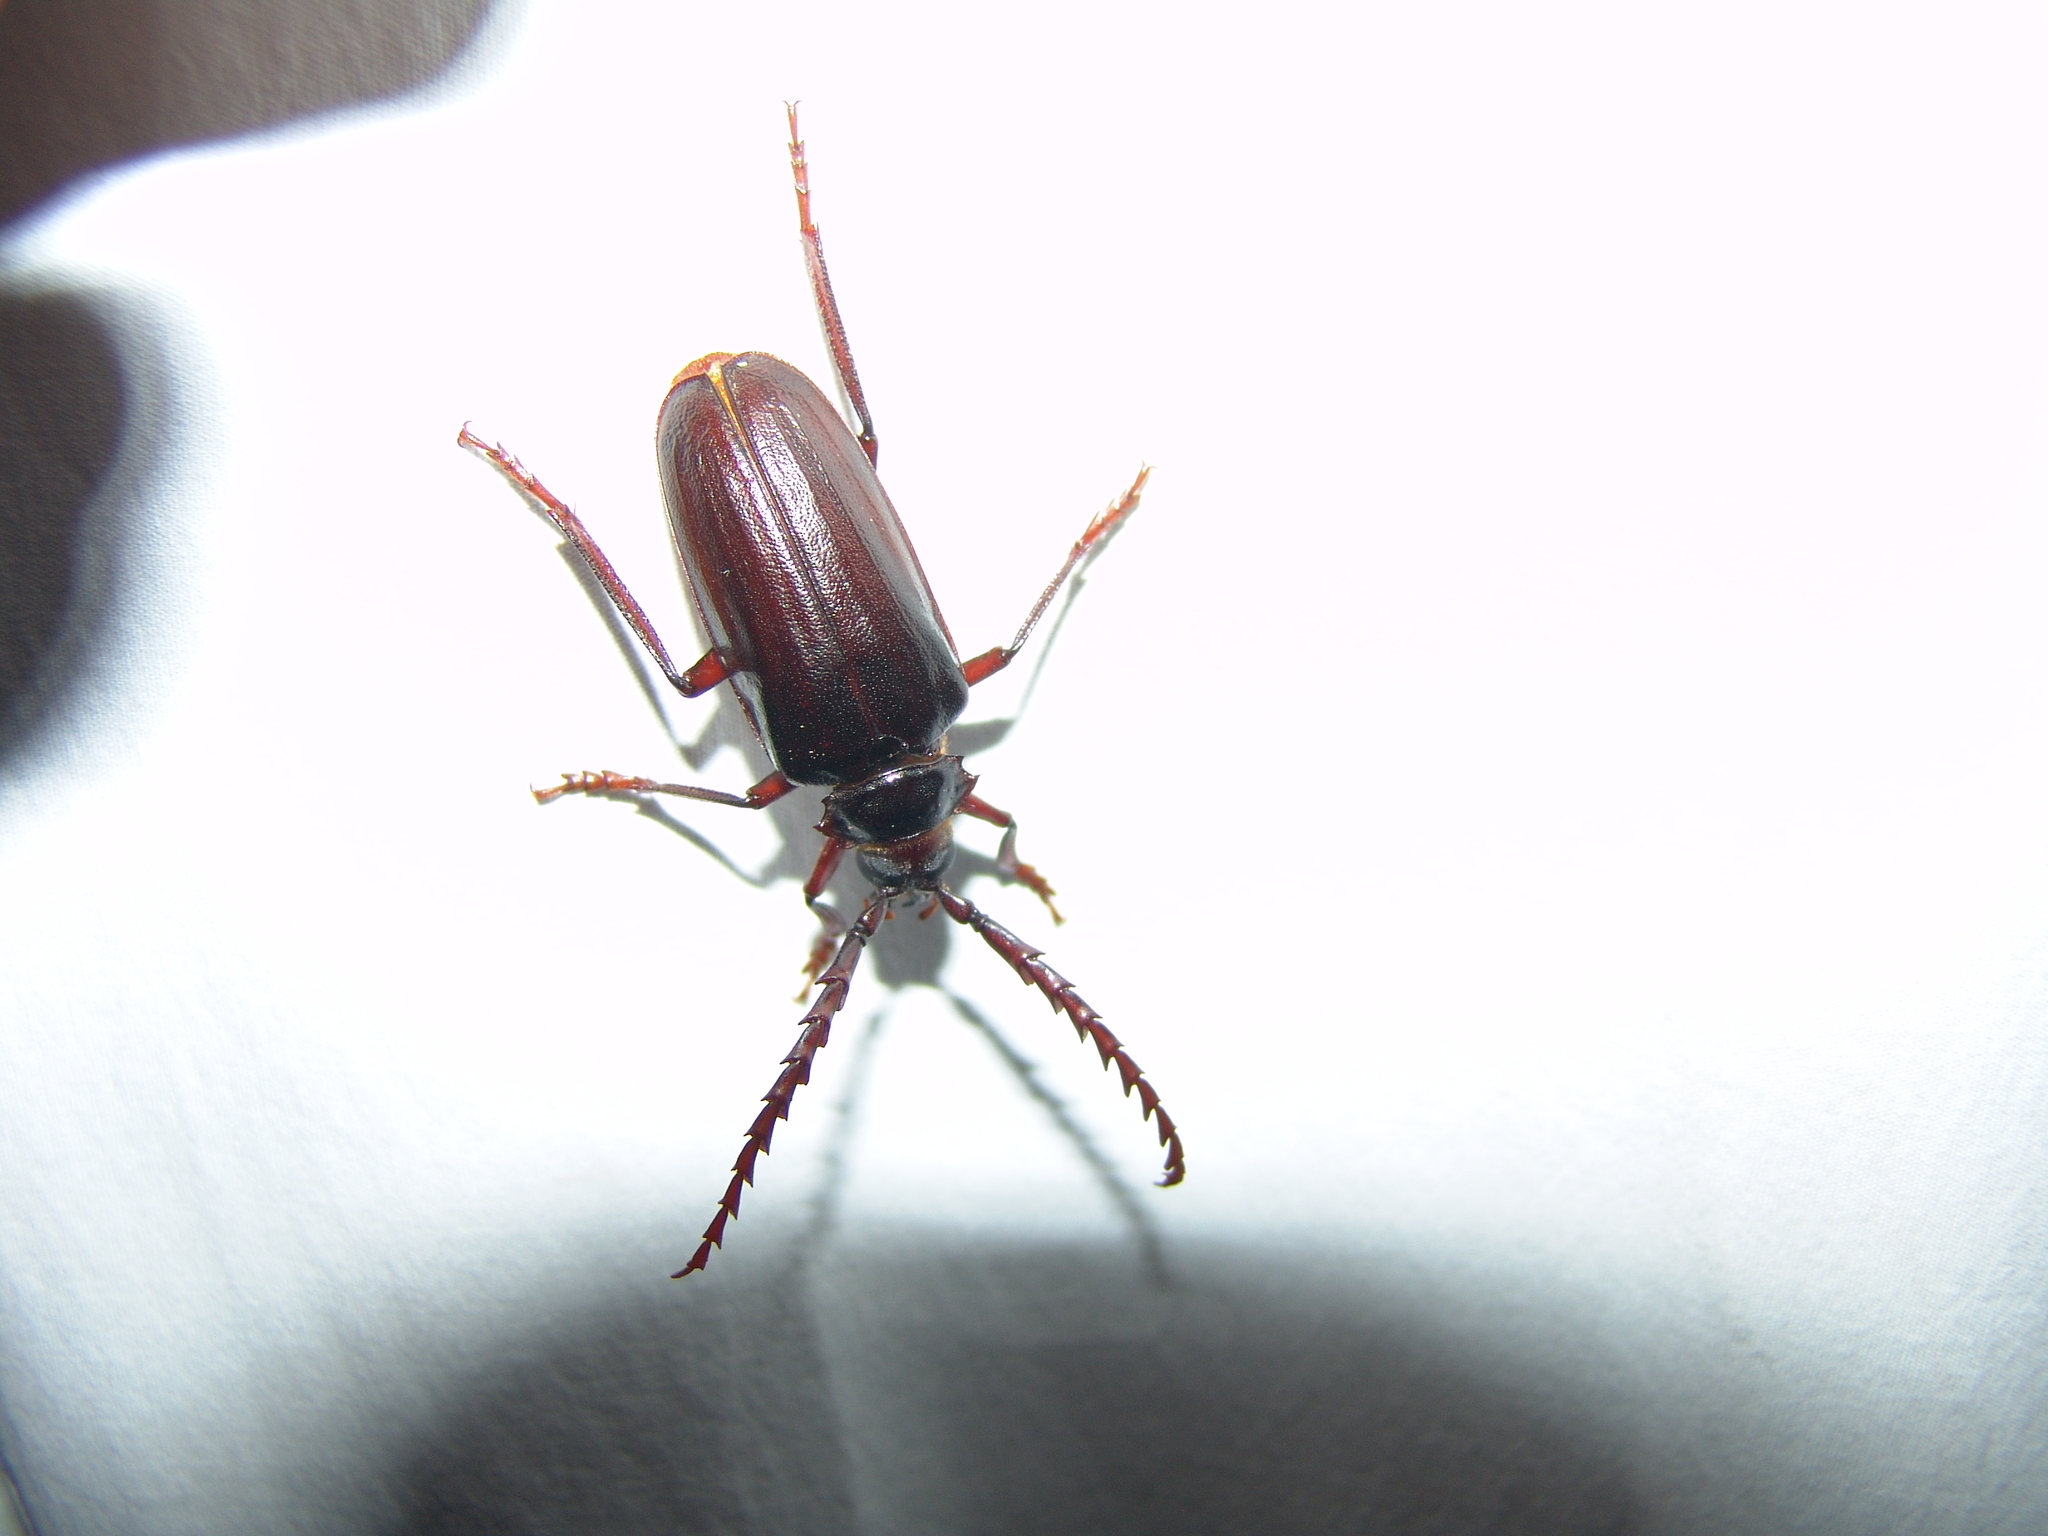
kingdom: Animalia
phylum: Arthropoda
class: Insecta
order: Coleoptera
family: Cerambycidae
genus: Prionus
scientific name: Prionus californicus
